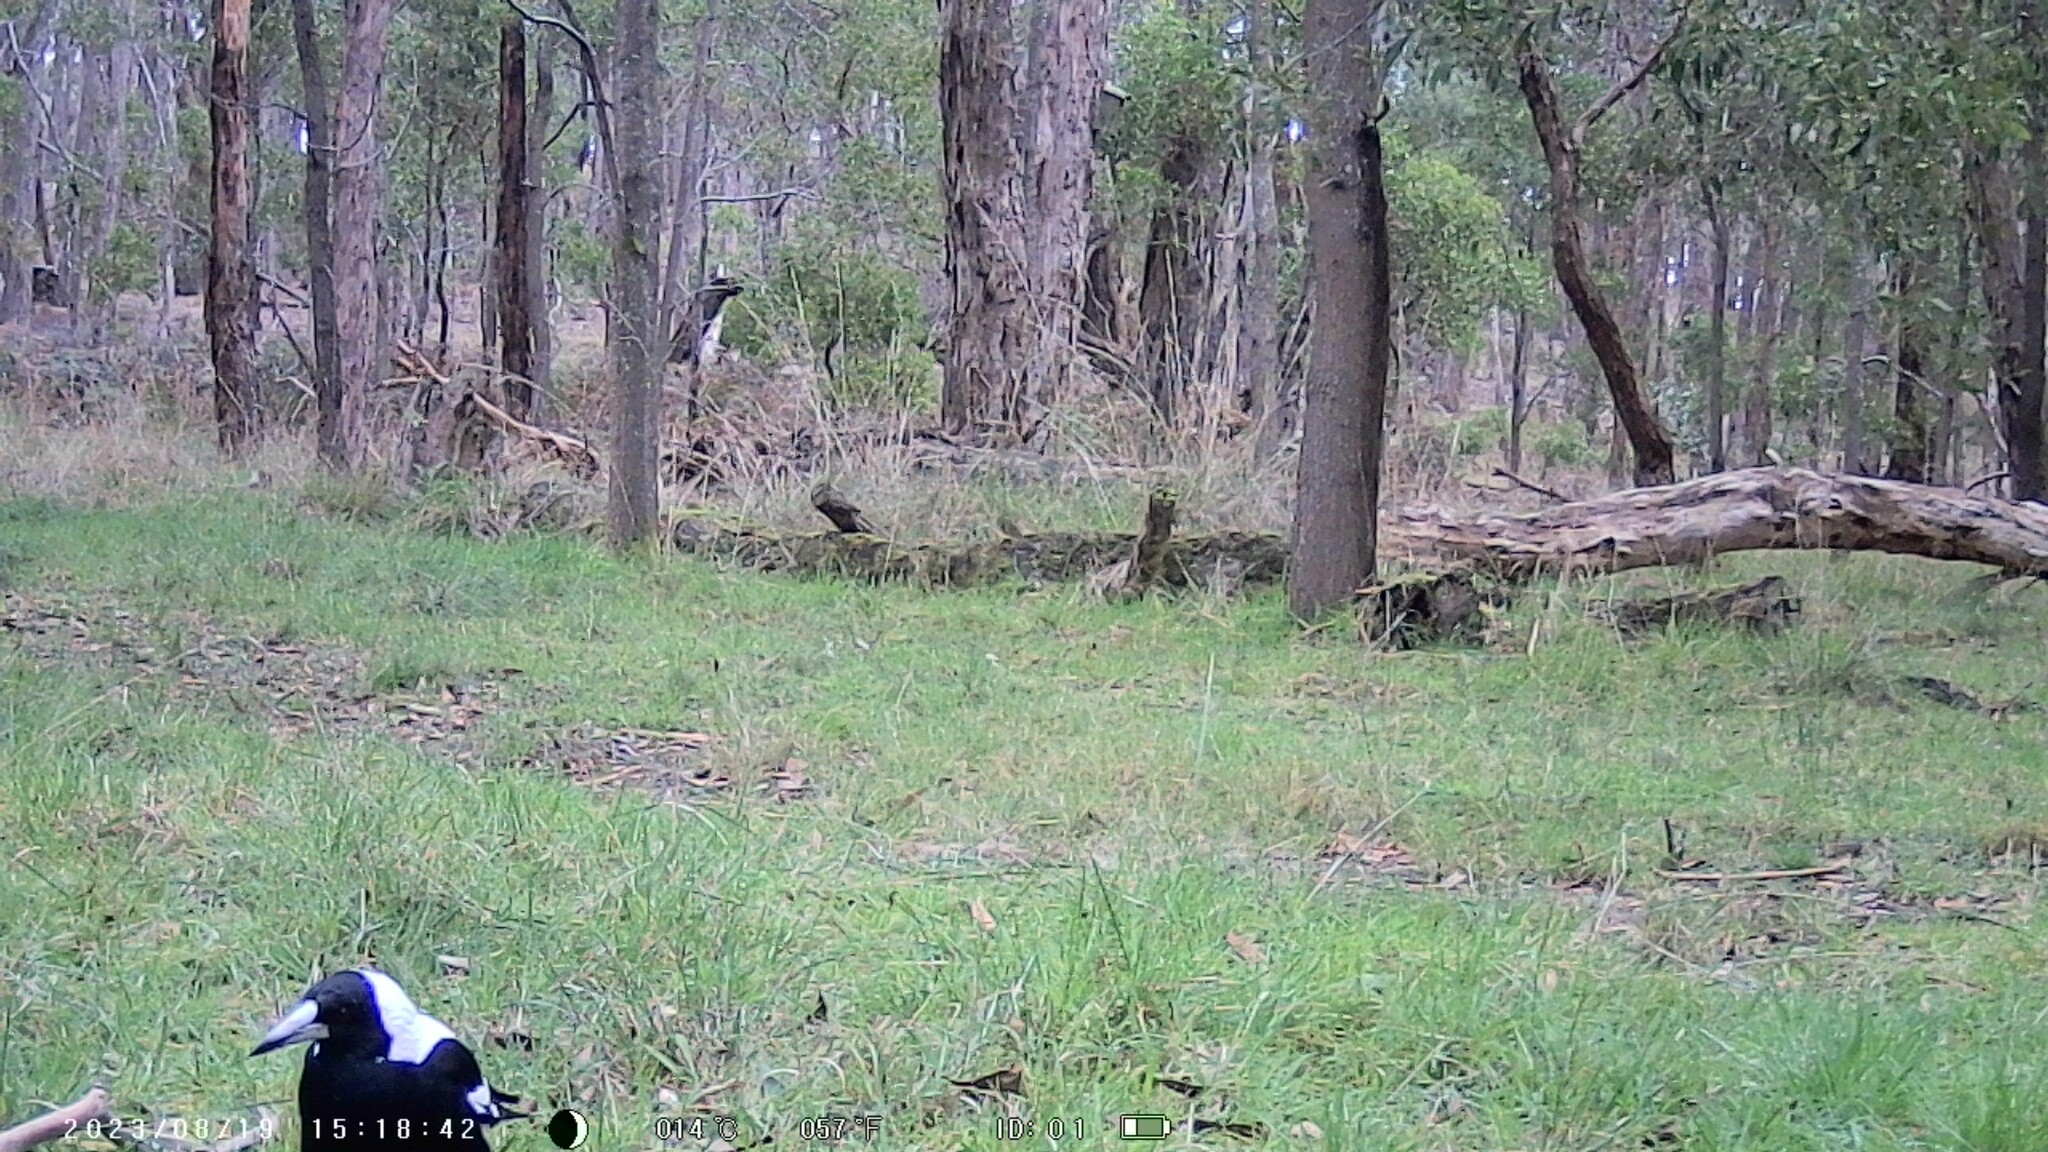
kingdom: Animalia
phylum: Chordata
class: Aves
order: Passeriformes
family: Cracticidae
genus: Gymnorhina
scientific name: Gymnorhina tibicen
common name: Australian magpie
